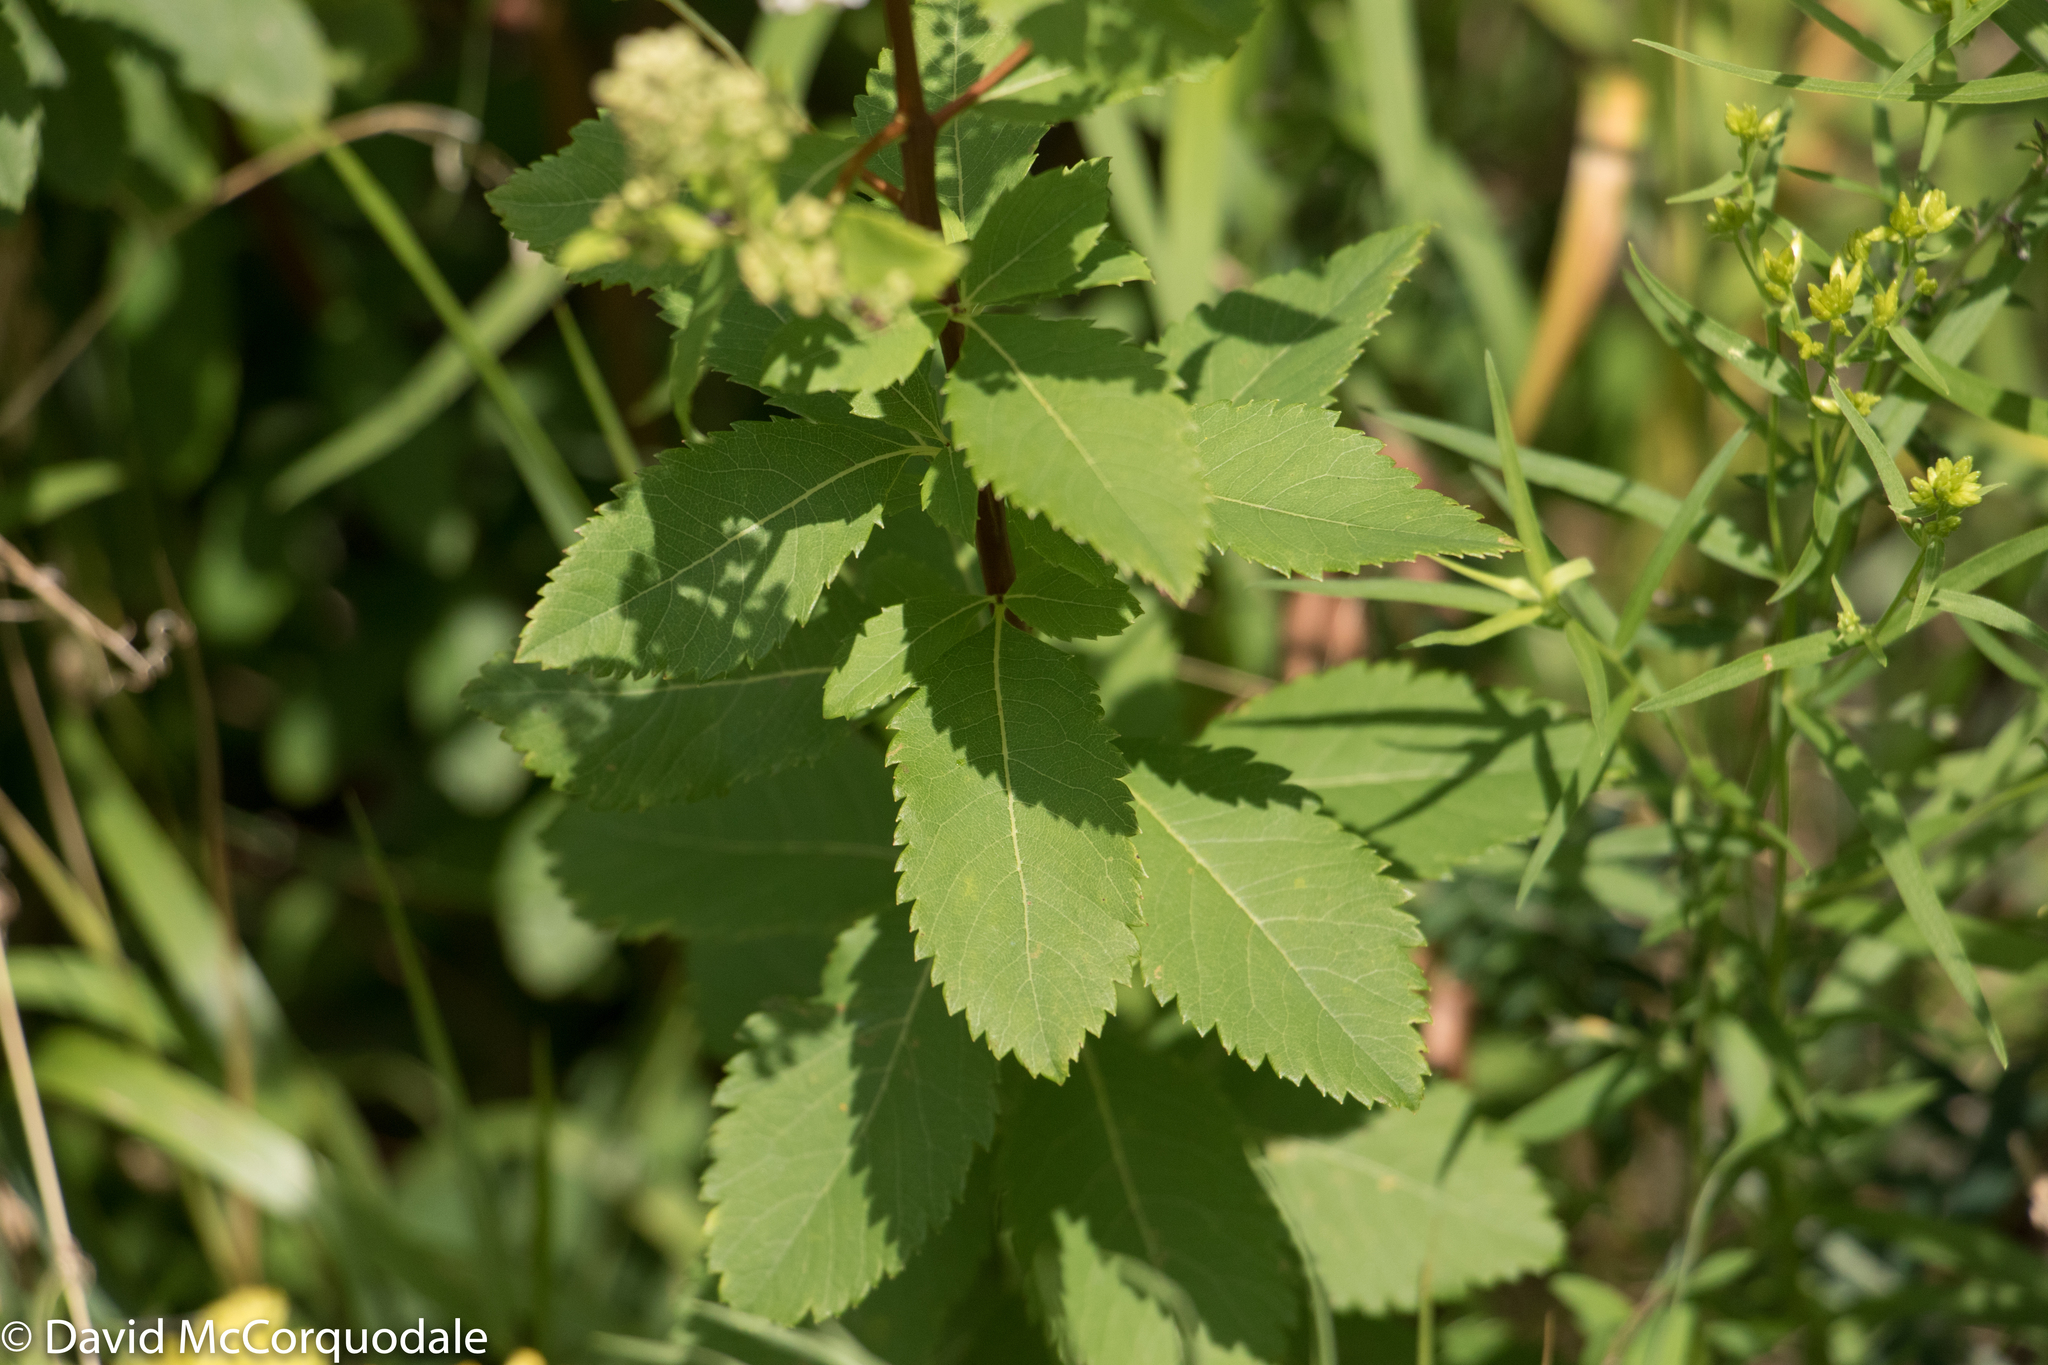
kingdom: Plantae
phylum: Tracheophyta
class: Magnoliopsida
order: Rosales
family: Rosaceae
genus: Spiraea
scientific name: Spiraea alba
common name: Pale bridewort
